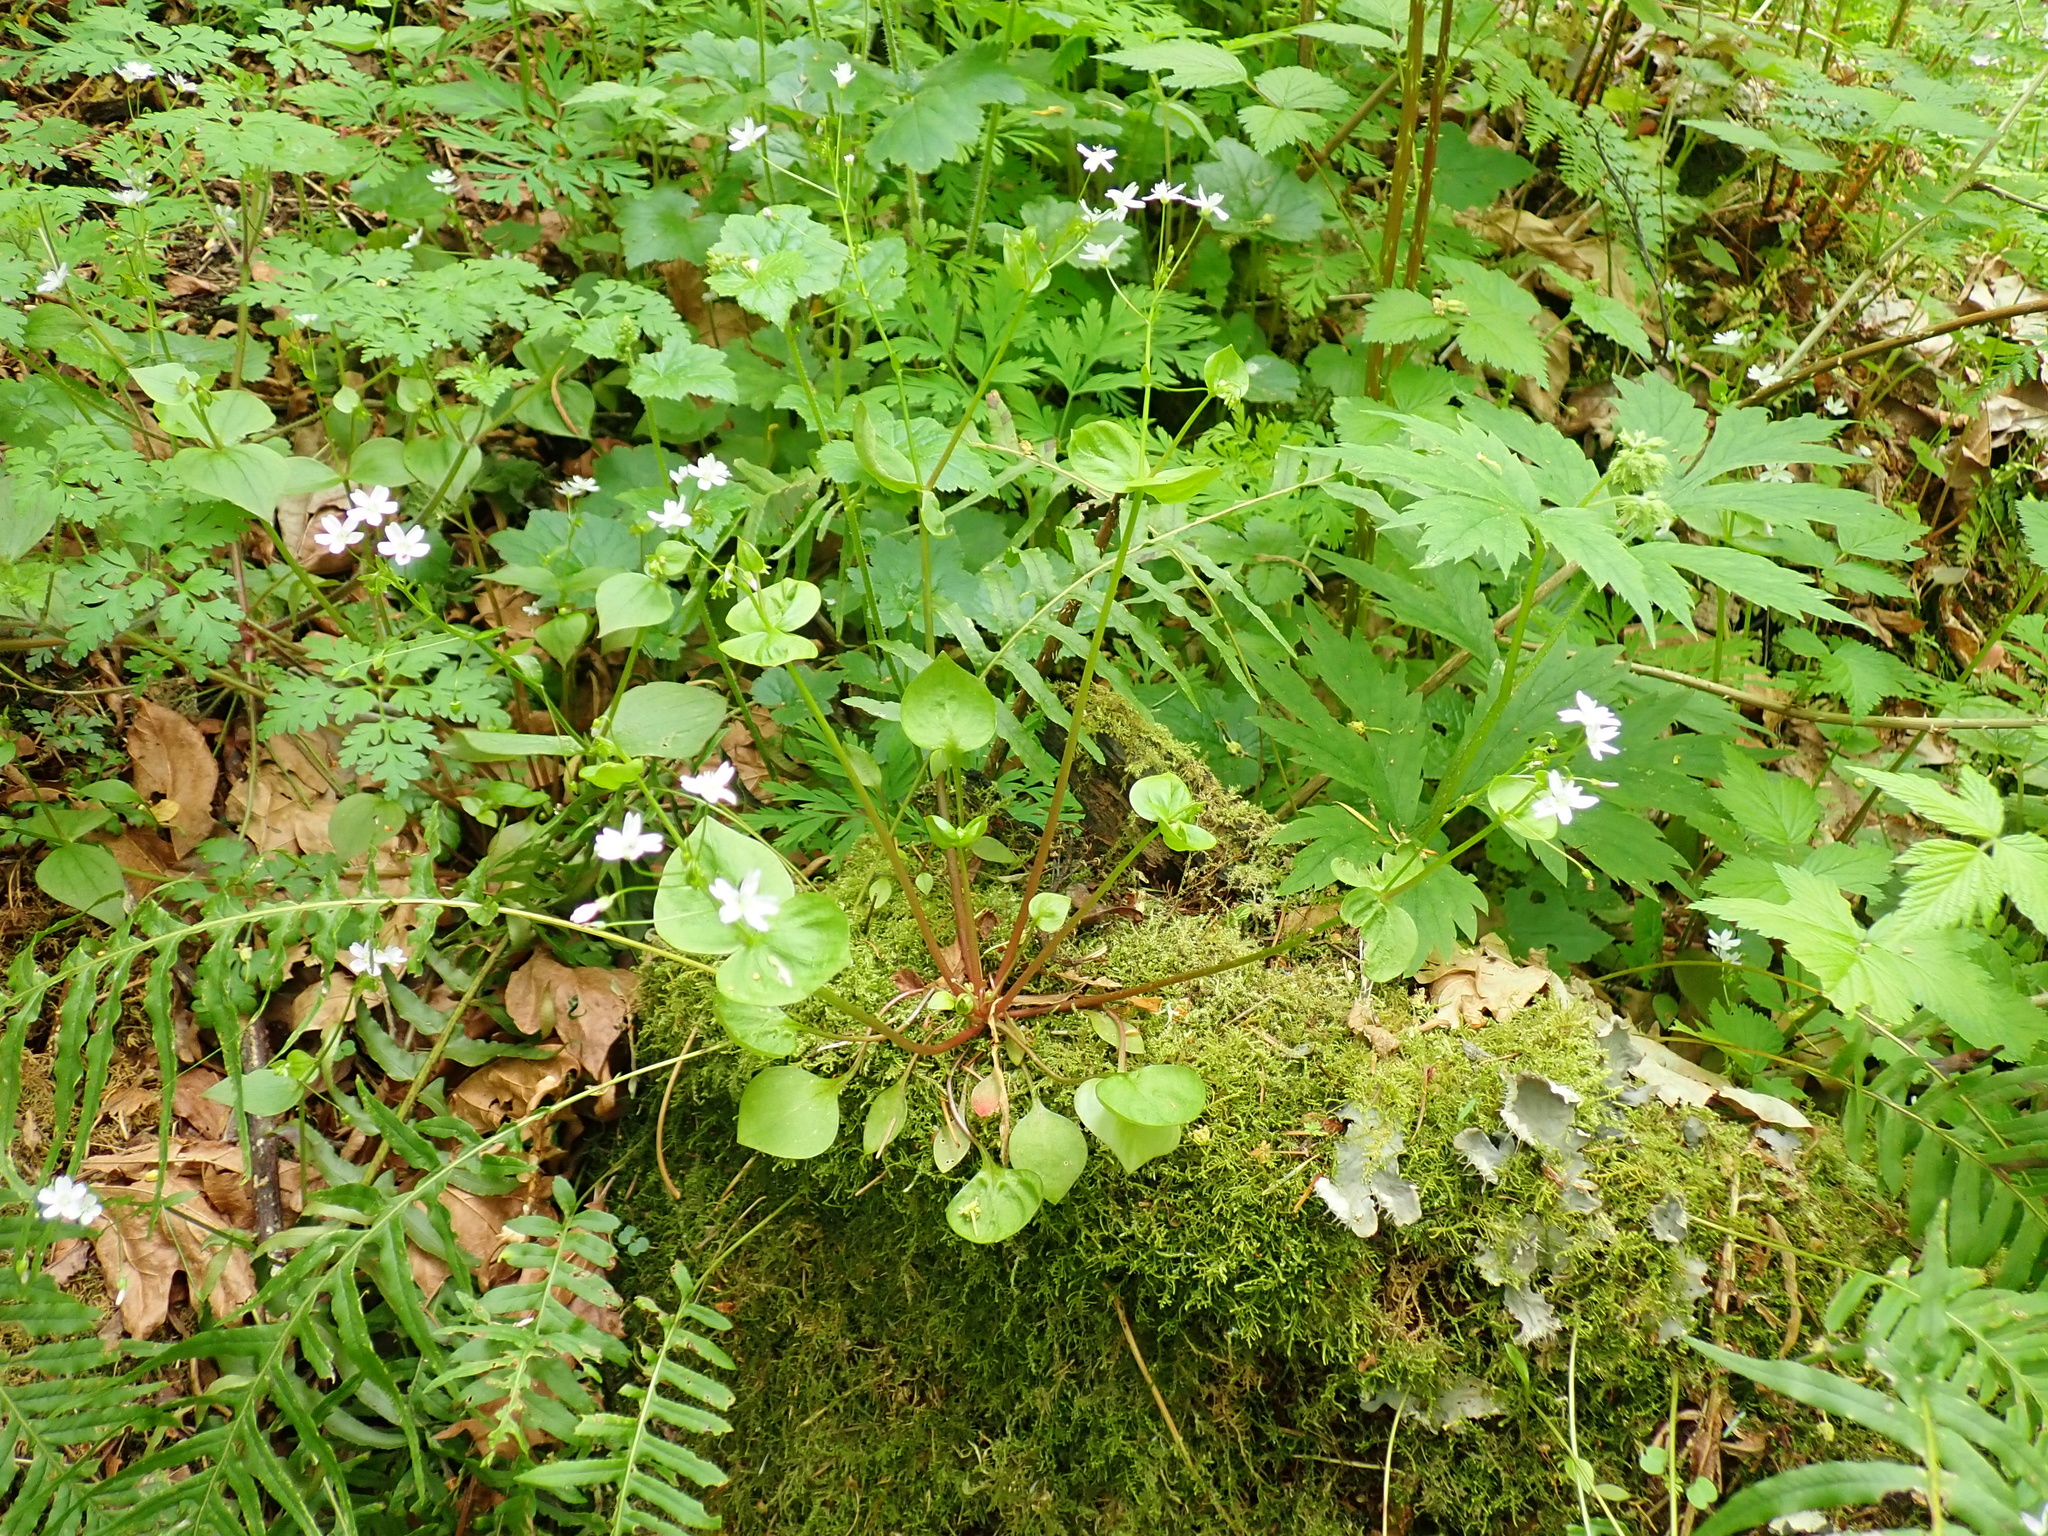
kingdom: Plantae
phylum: Tracheophyta
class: Magnoliopsida
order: Caryophyllales
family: Montiaceae
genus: Claytonia
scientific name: Claytonia sibirica
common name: Pink purslane
